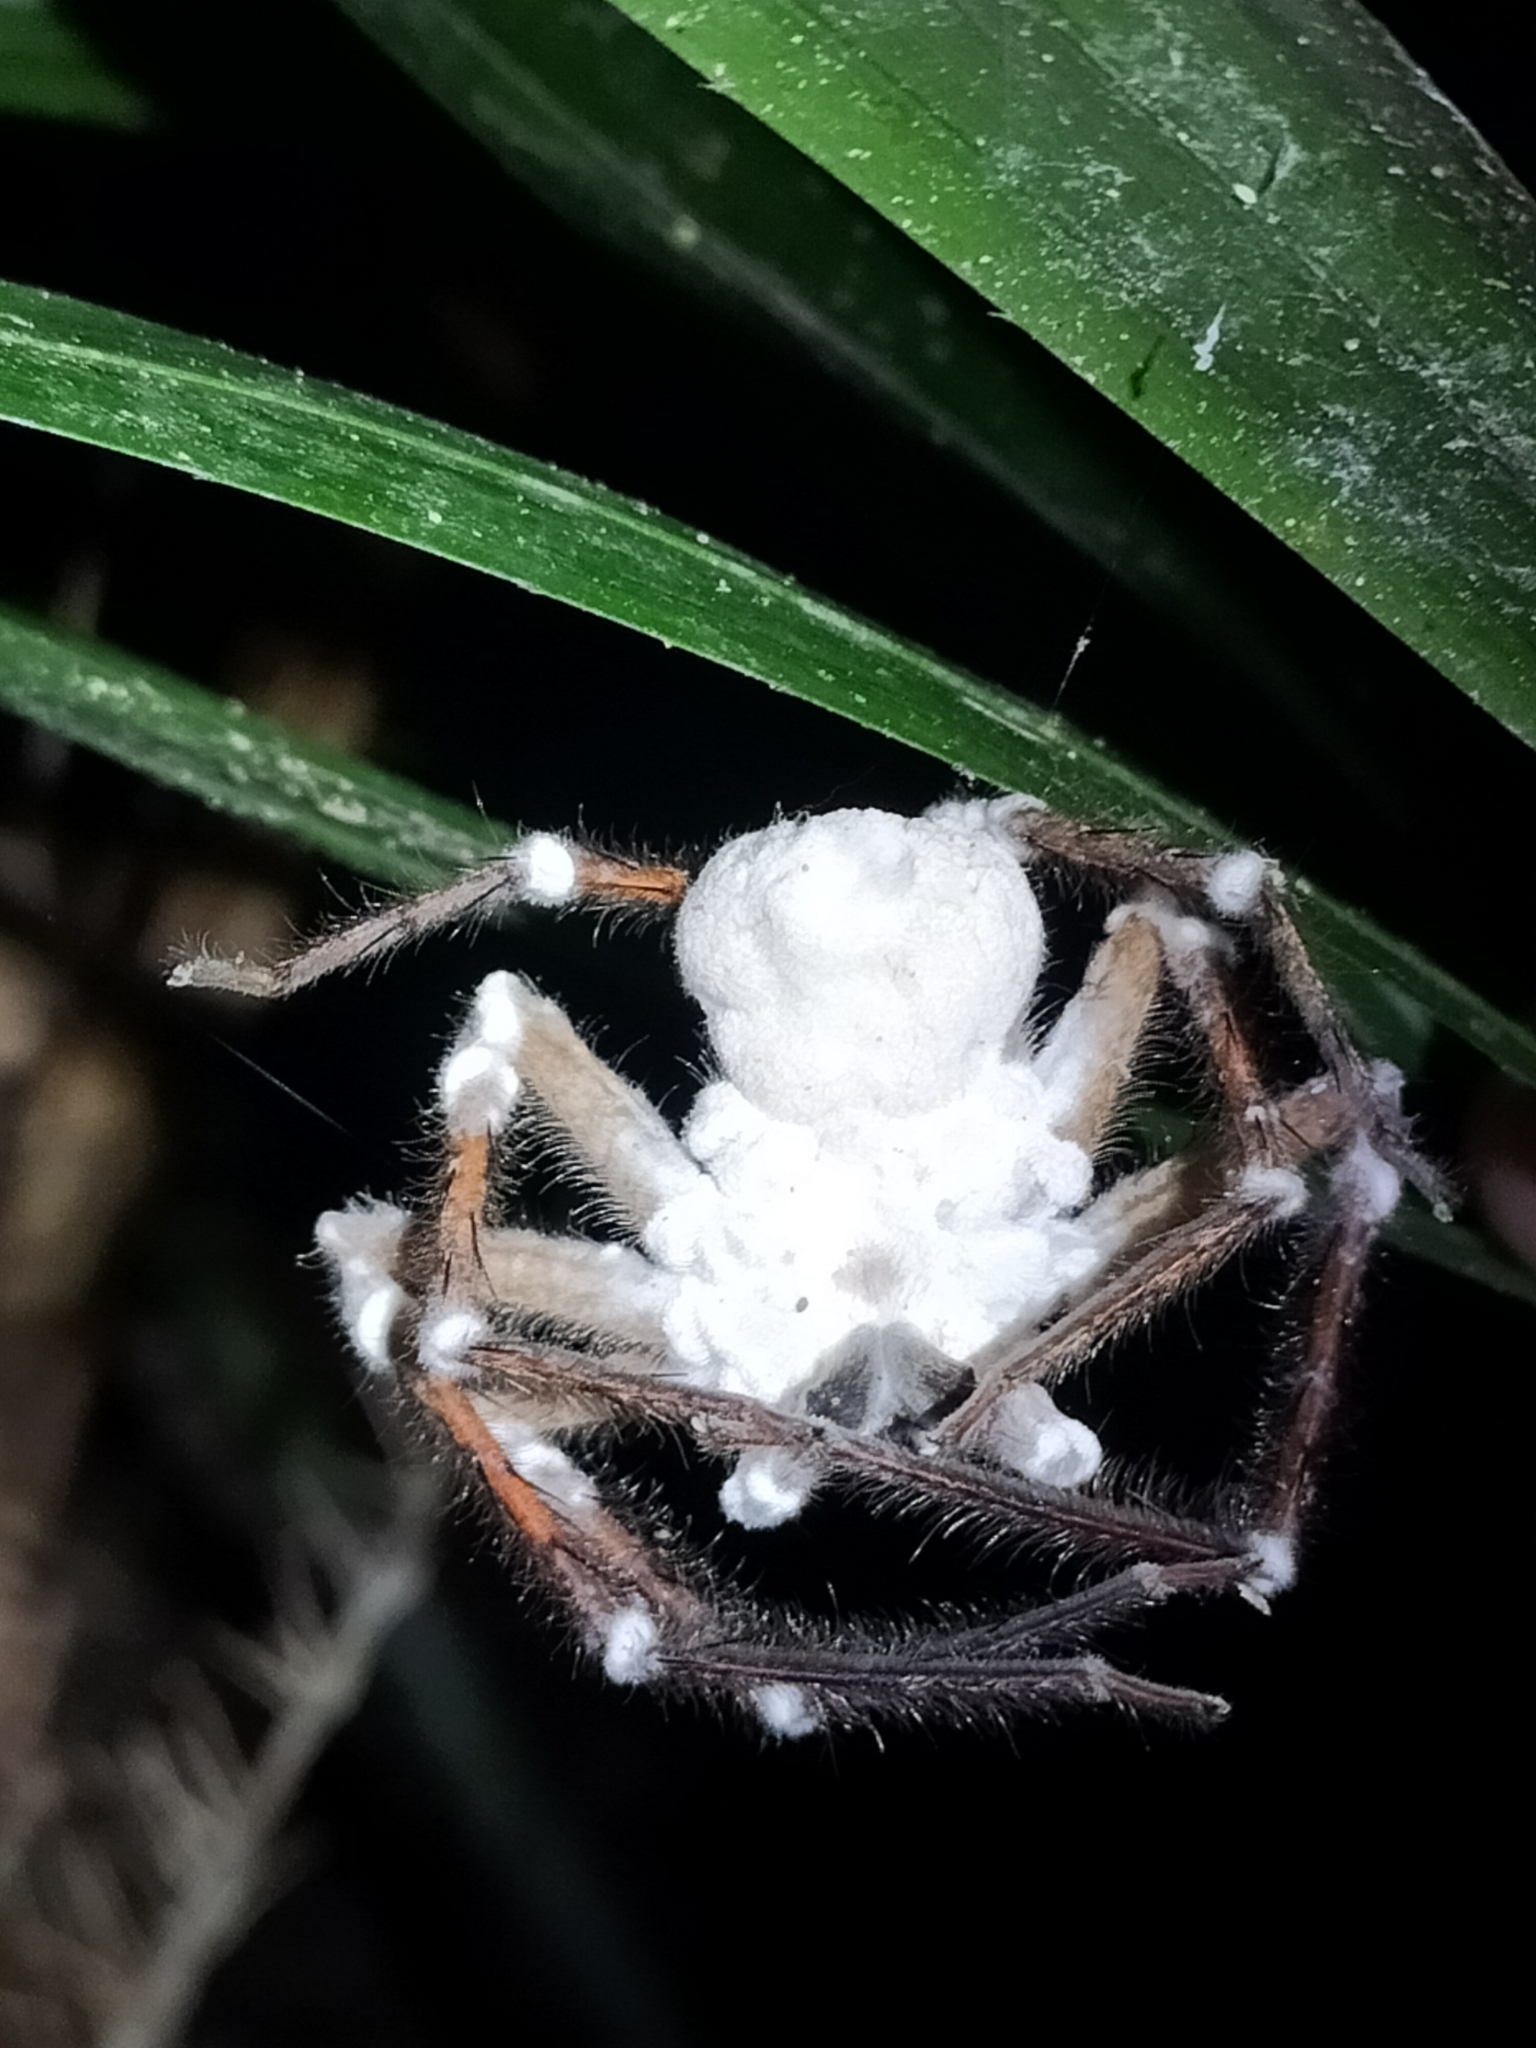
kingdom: Fungi
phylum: Ascomycota
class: Sordariomycetes
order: Hypocreales
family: Cordycipitaceae
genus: Beauveria
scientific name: Beauveria bassiana
